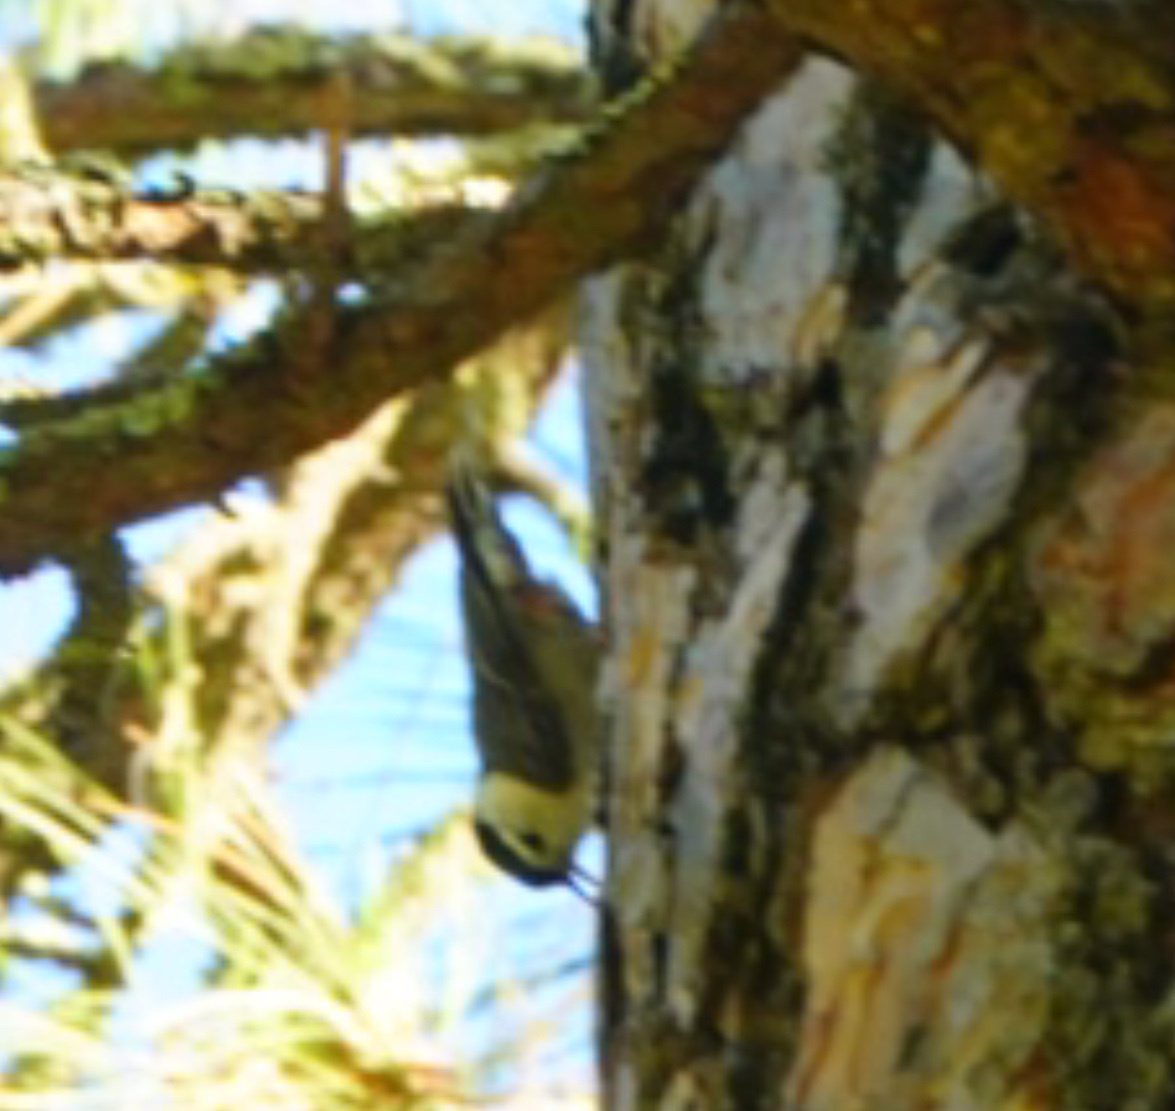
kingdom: Animalia
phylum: Chordata
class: Aves
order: Passeriformes
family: Sittidae
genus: Sitta
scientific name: Sitta carolinensis
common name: White-breasted nuthatch
